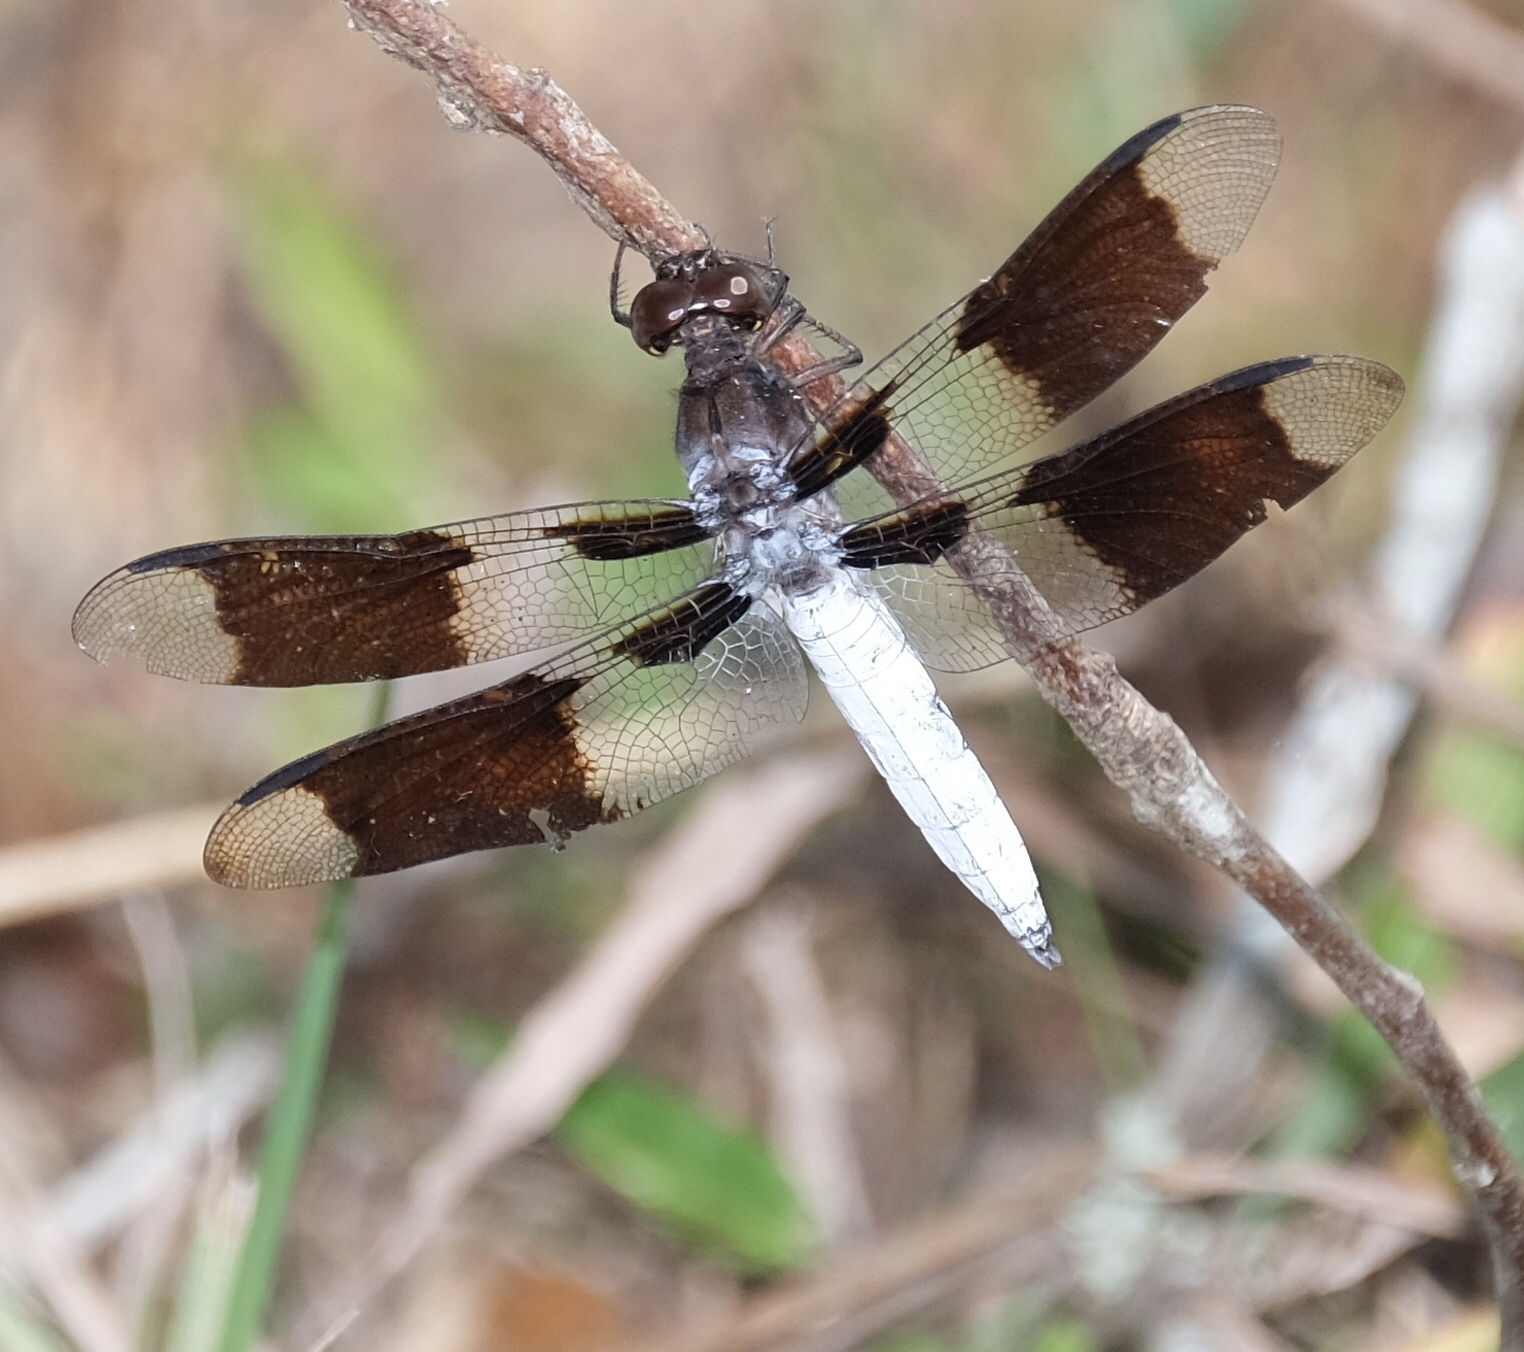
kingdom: Animalia
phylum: Arthropoda
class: Insecta
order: Odonata
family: Libellulidae
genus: Plathemis
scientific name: Plathemis lydia
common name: Common whitetail
